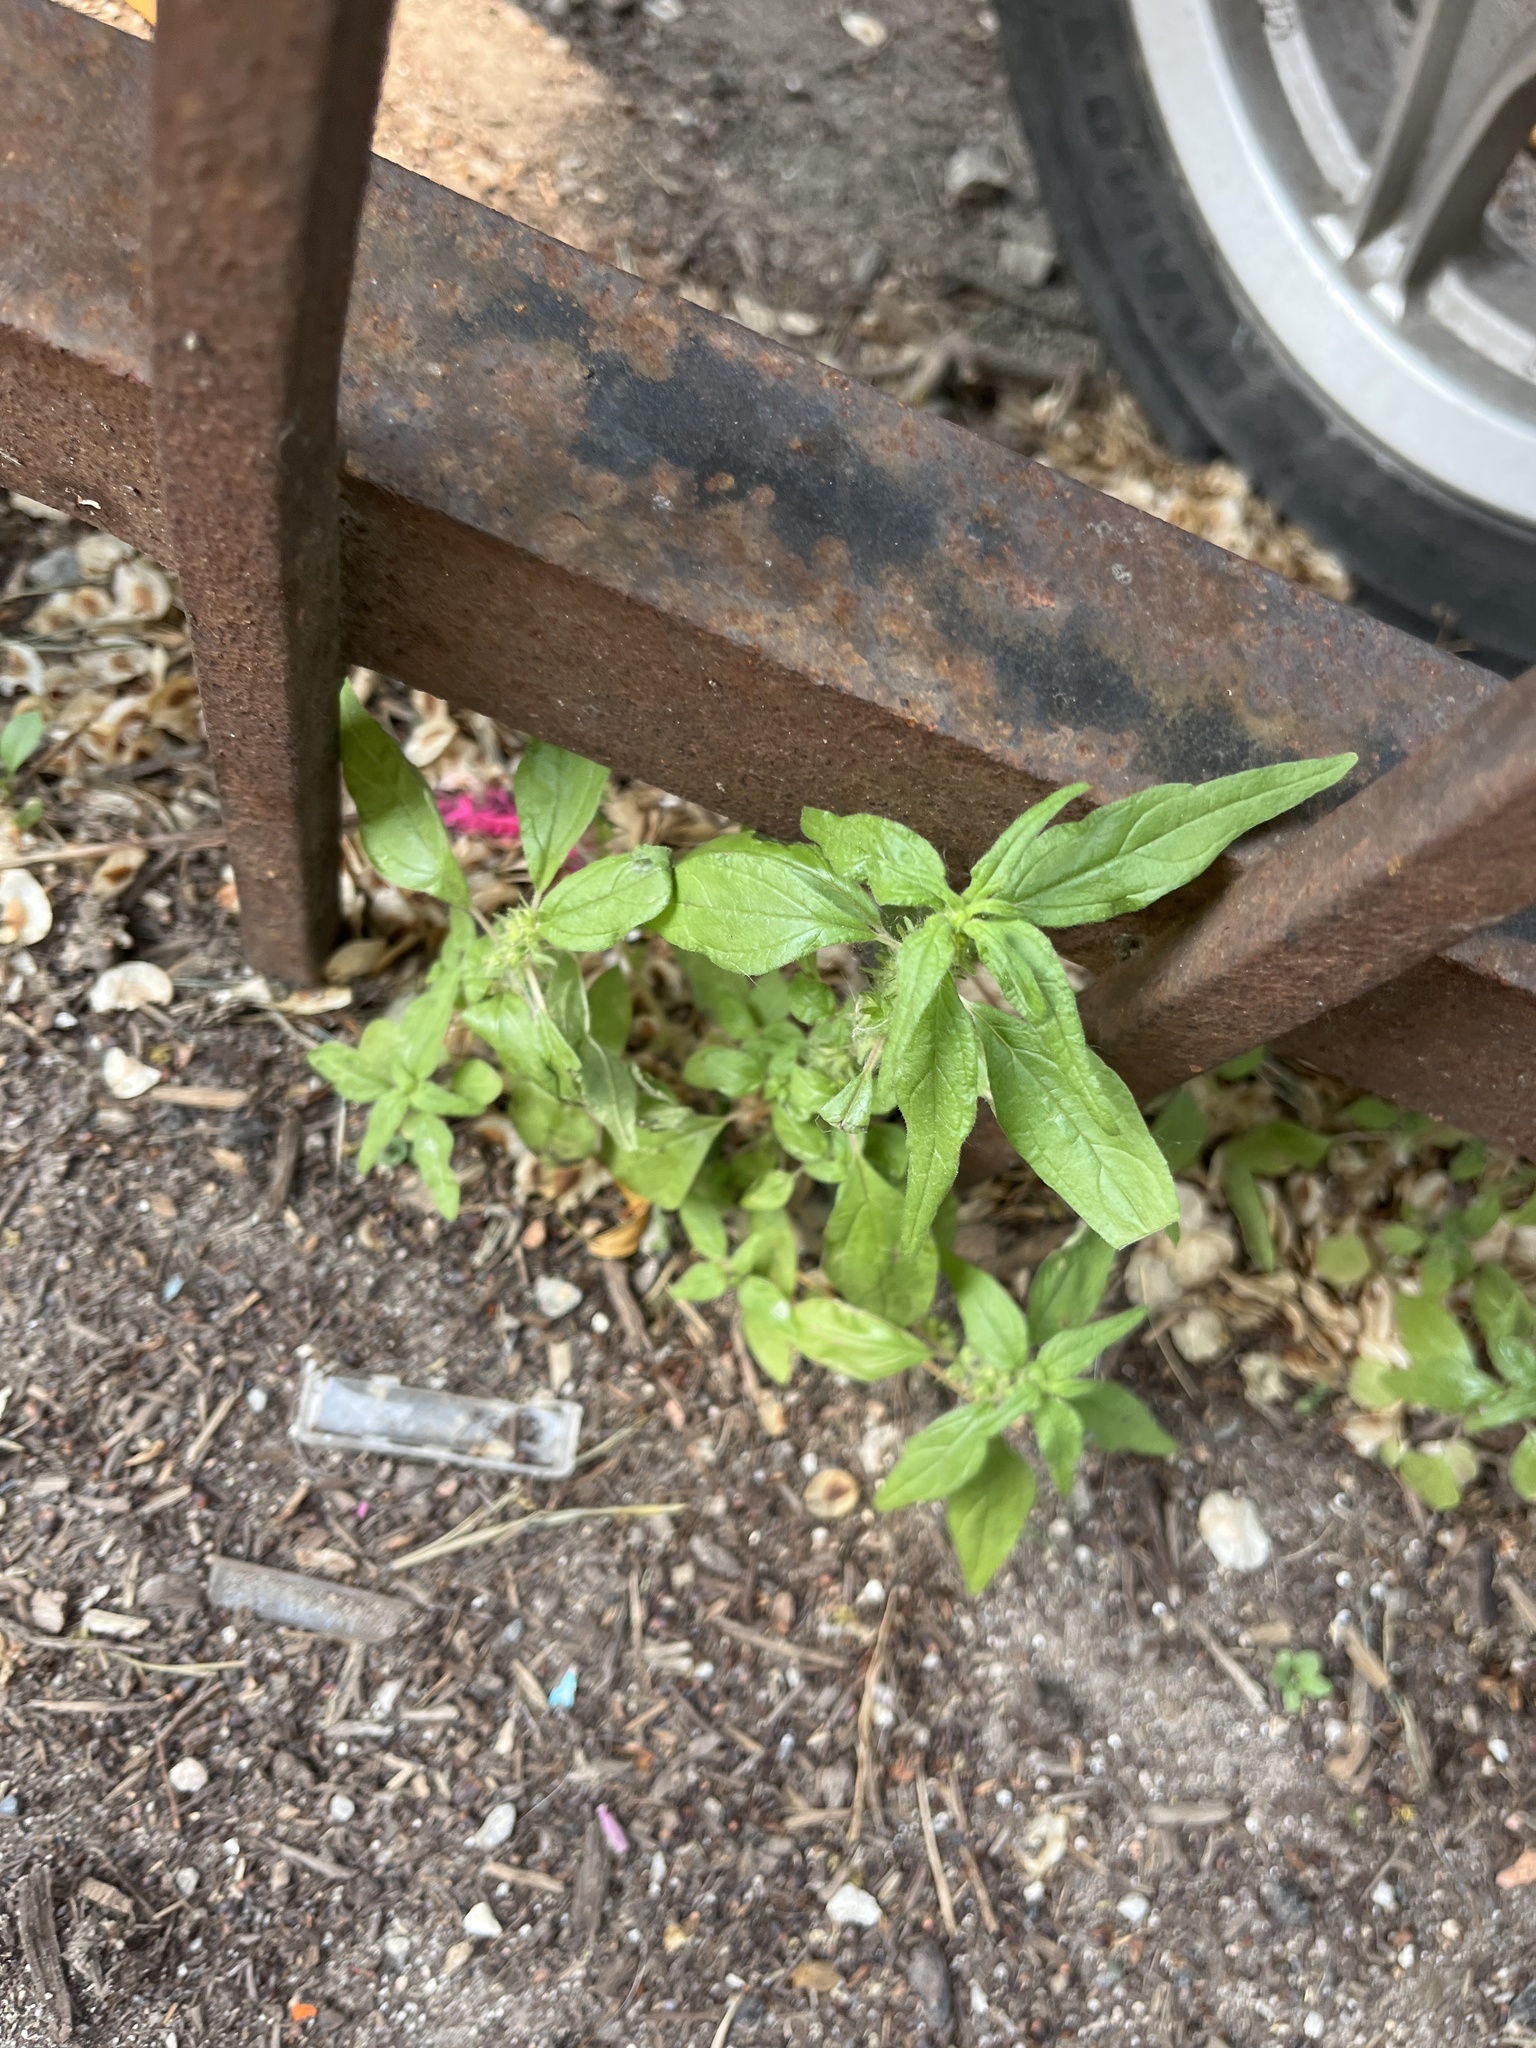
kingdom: Plantae
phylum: Tracheophyta
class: Magnoliopsida
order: Rosales
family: Urticaceae
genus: Parietaria
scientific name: Parietaria pensylvanica
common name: Pennsylvania pellitory
